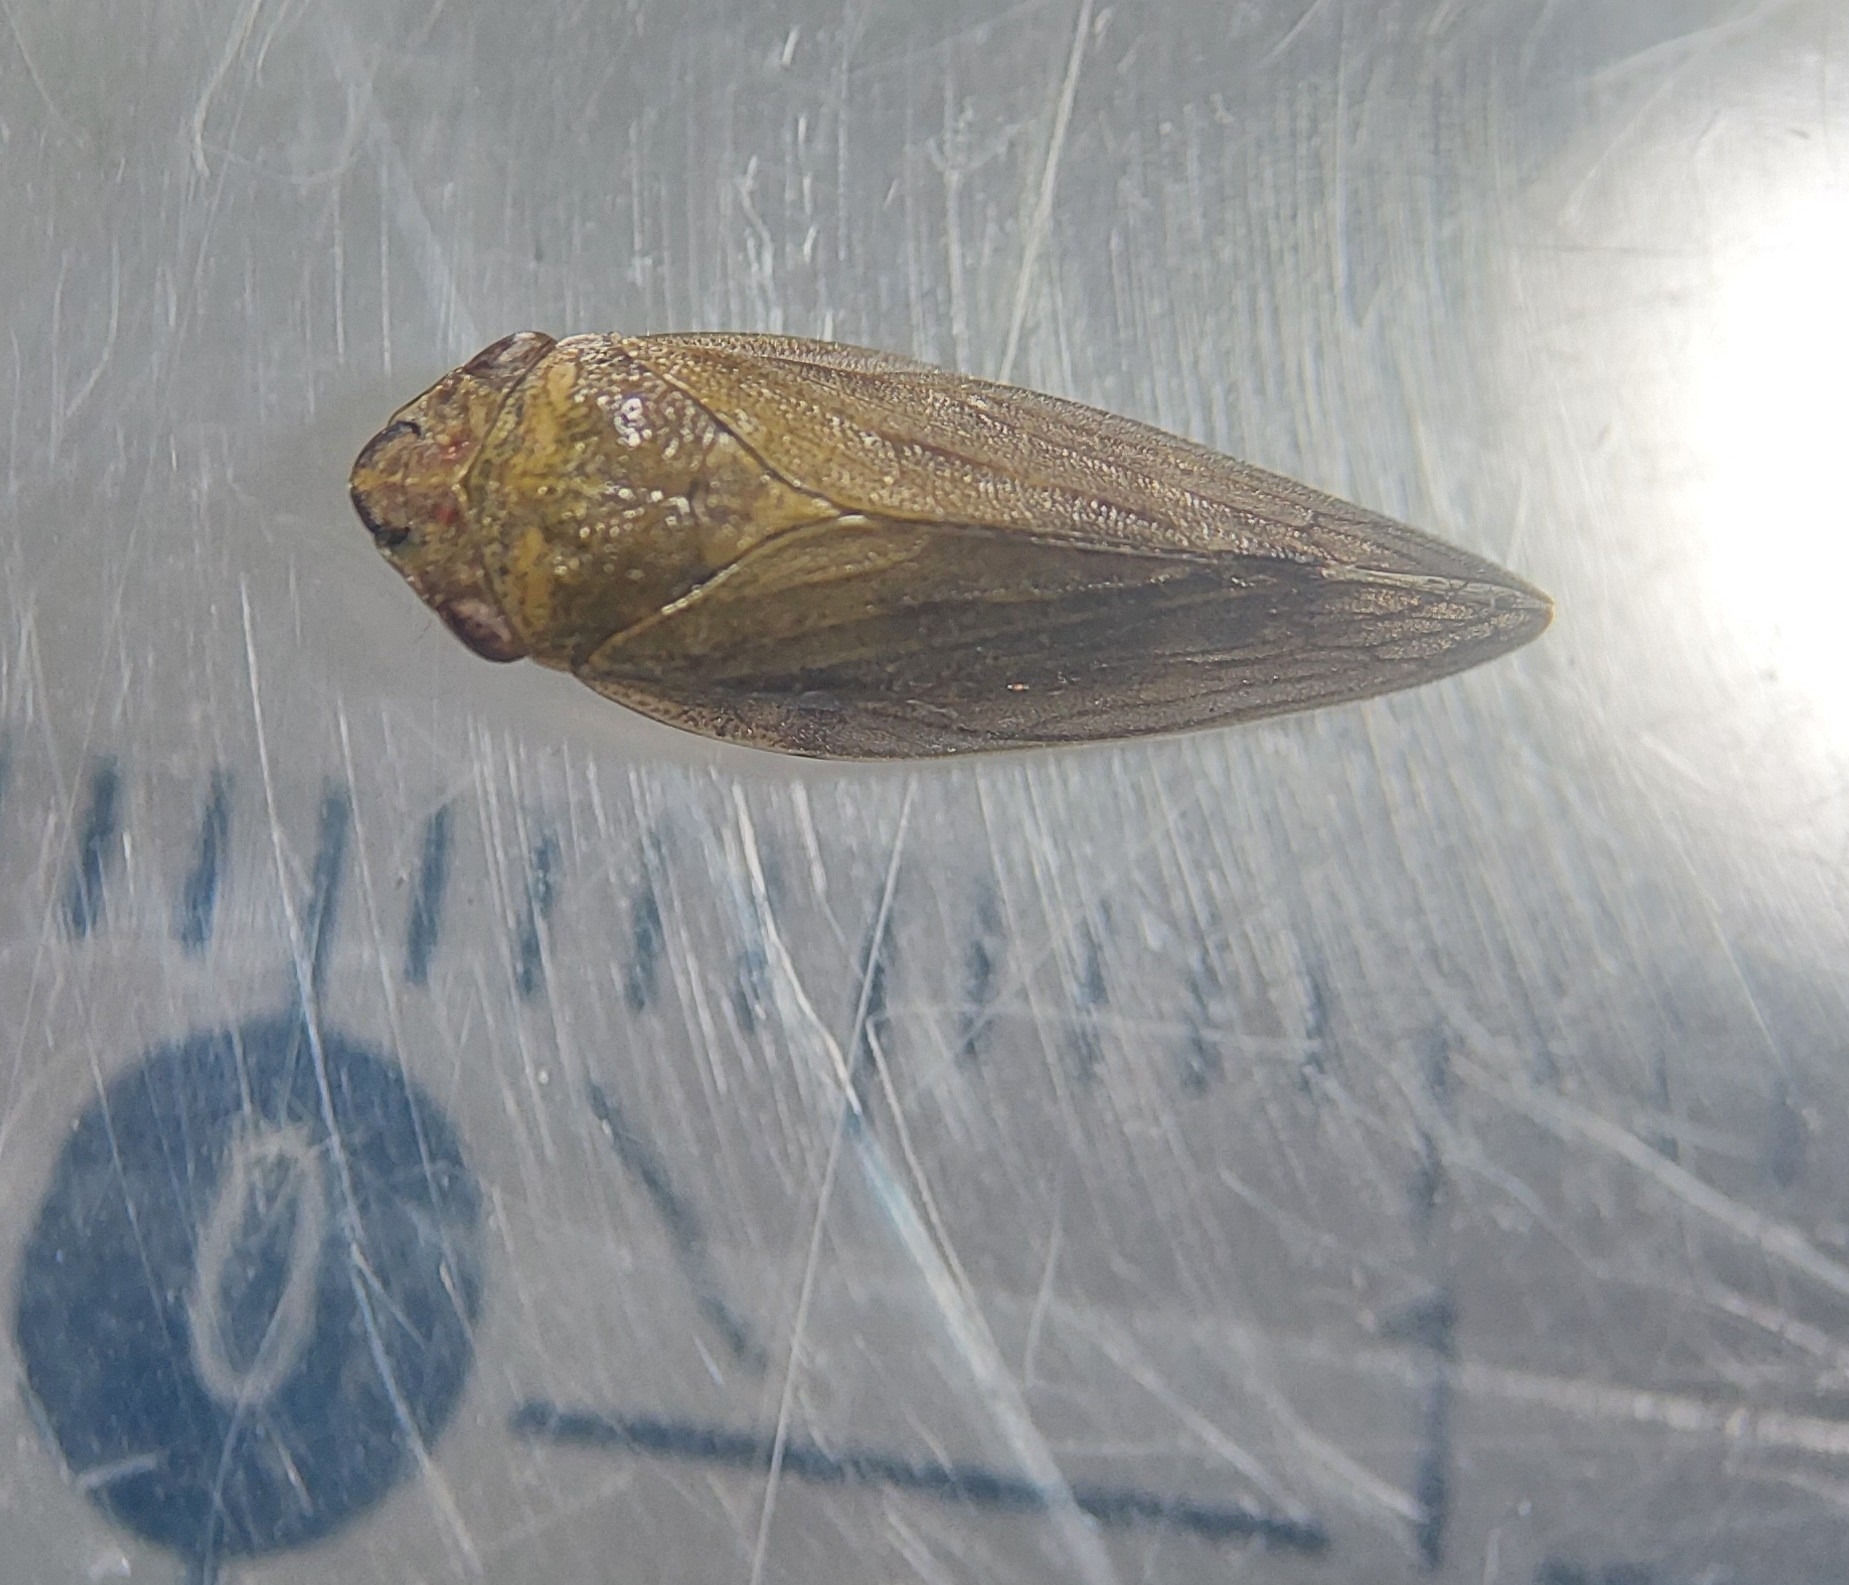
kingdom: Animalia
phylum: Arthropoda
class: Insecta
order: Hemiptera
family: Aphrophoridae
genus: Aphrophora
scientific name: Aphrophora salicina
